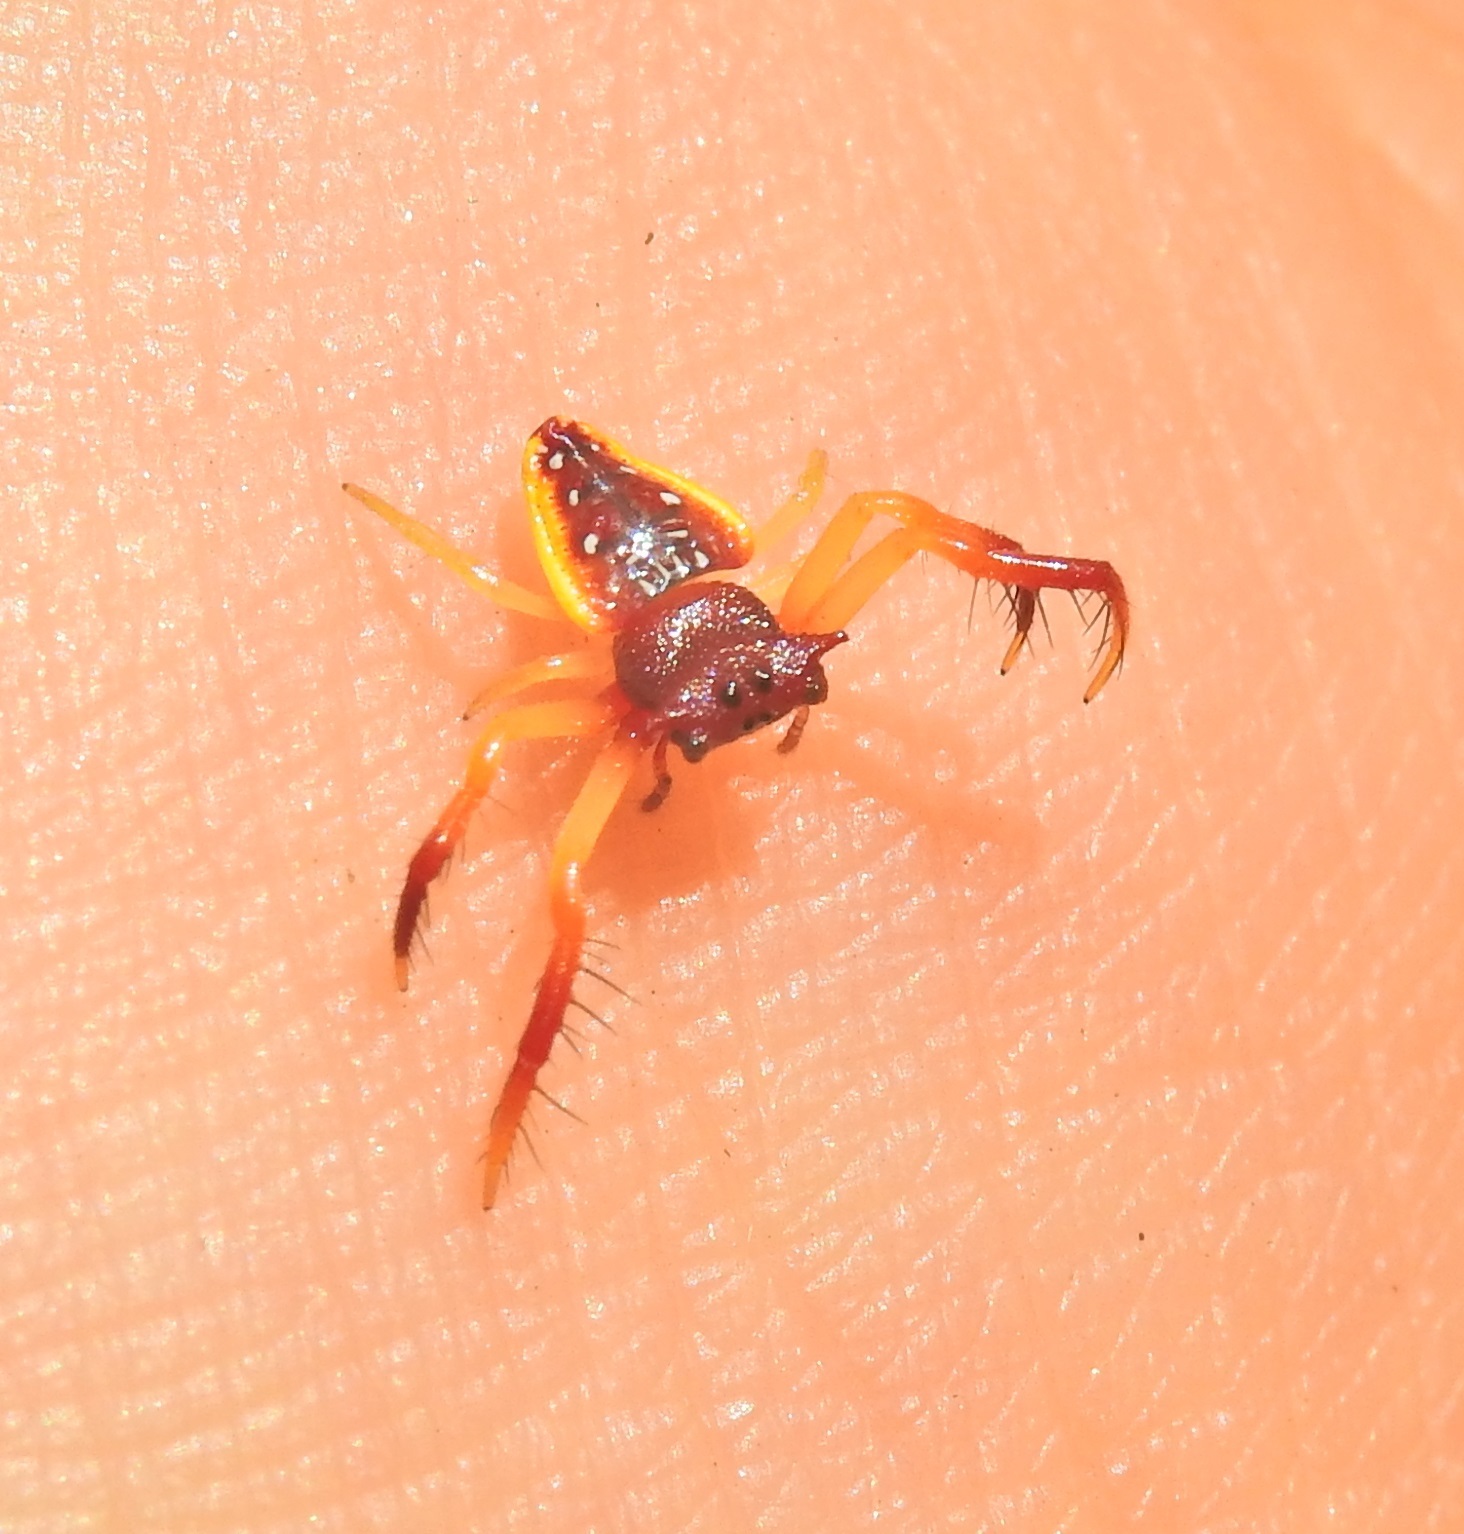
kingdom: Animalia
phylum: Arthropoda
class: Arachnida
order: Araneae
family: Arkyidae
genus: Arkys
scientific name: Arkys cornutus
